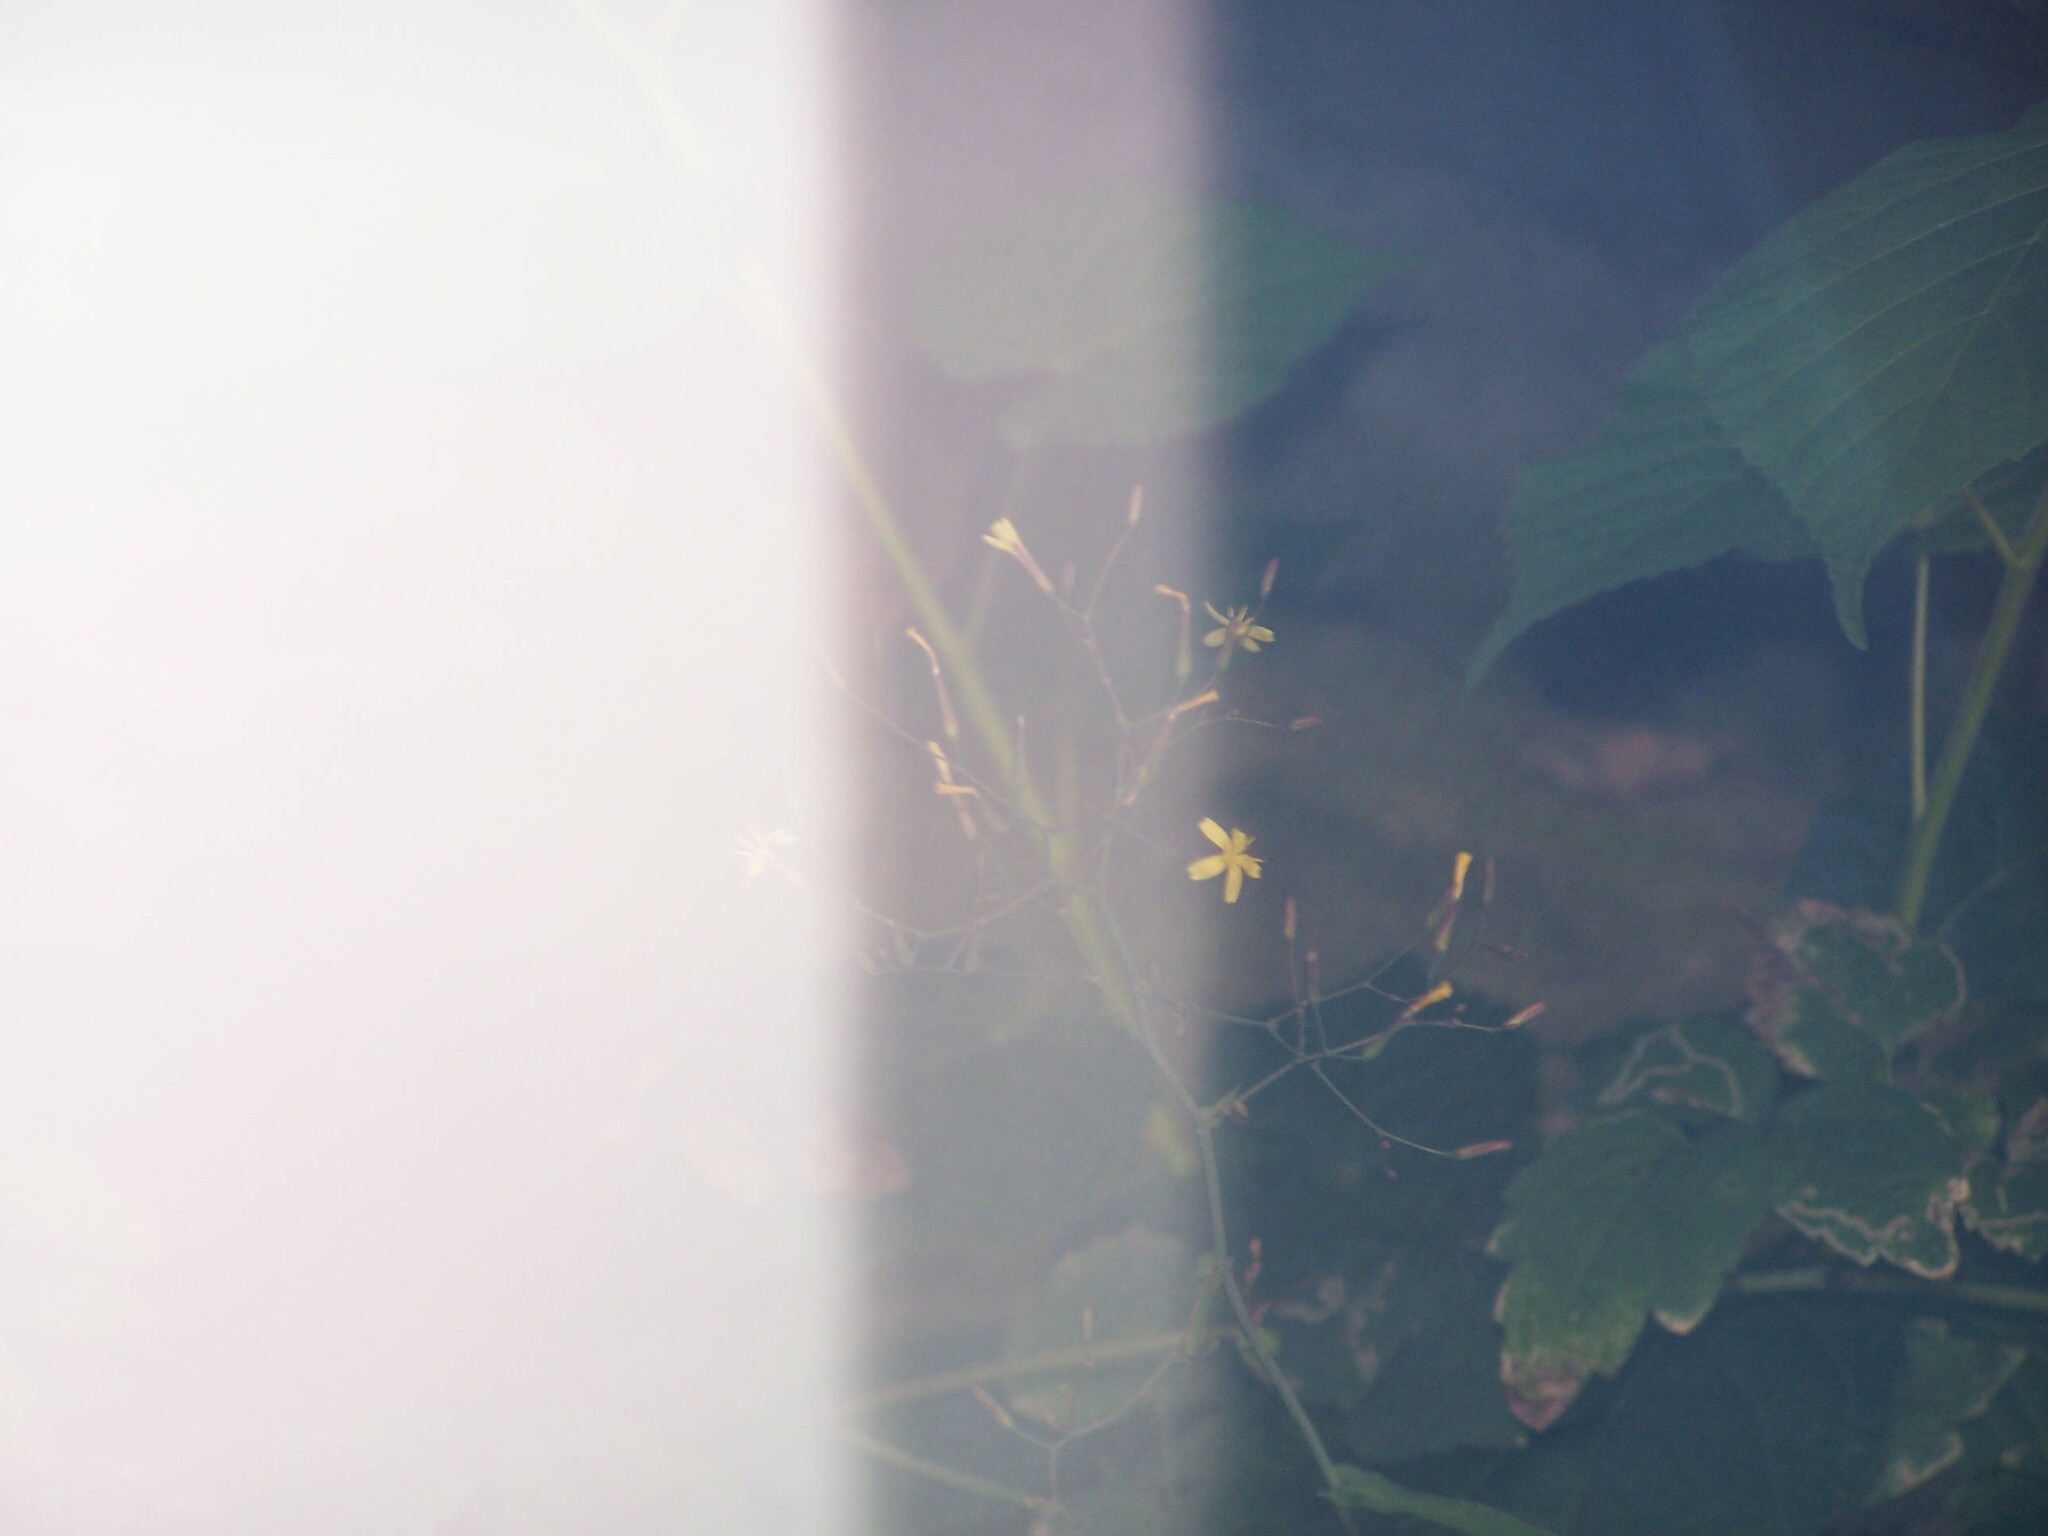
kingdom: Plantae
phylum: Tracheophyta
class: Magnoliopsida
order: Asterales
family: Asteraceae
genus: Mycelis
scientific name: Mycelis muralis
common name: Wall lettuce
